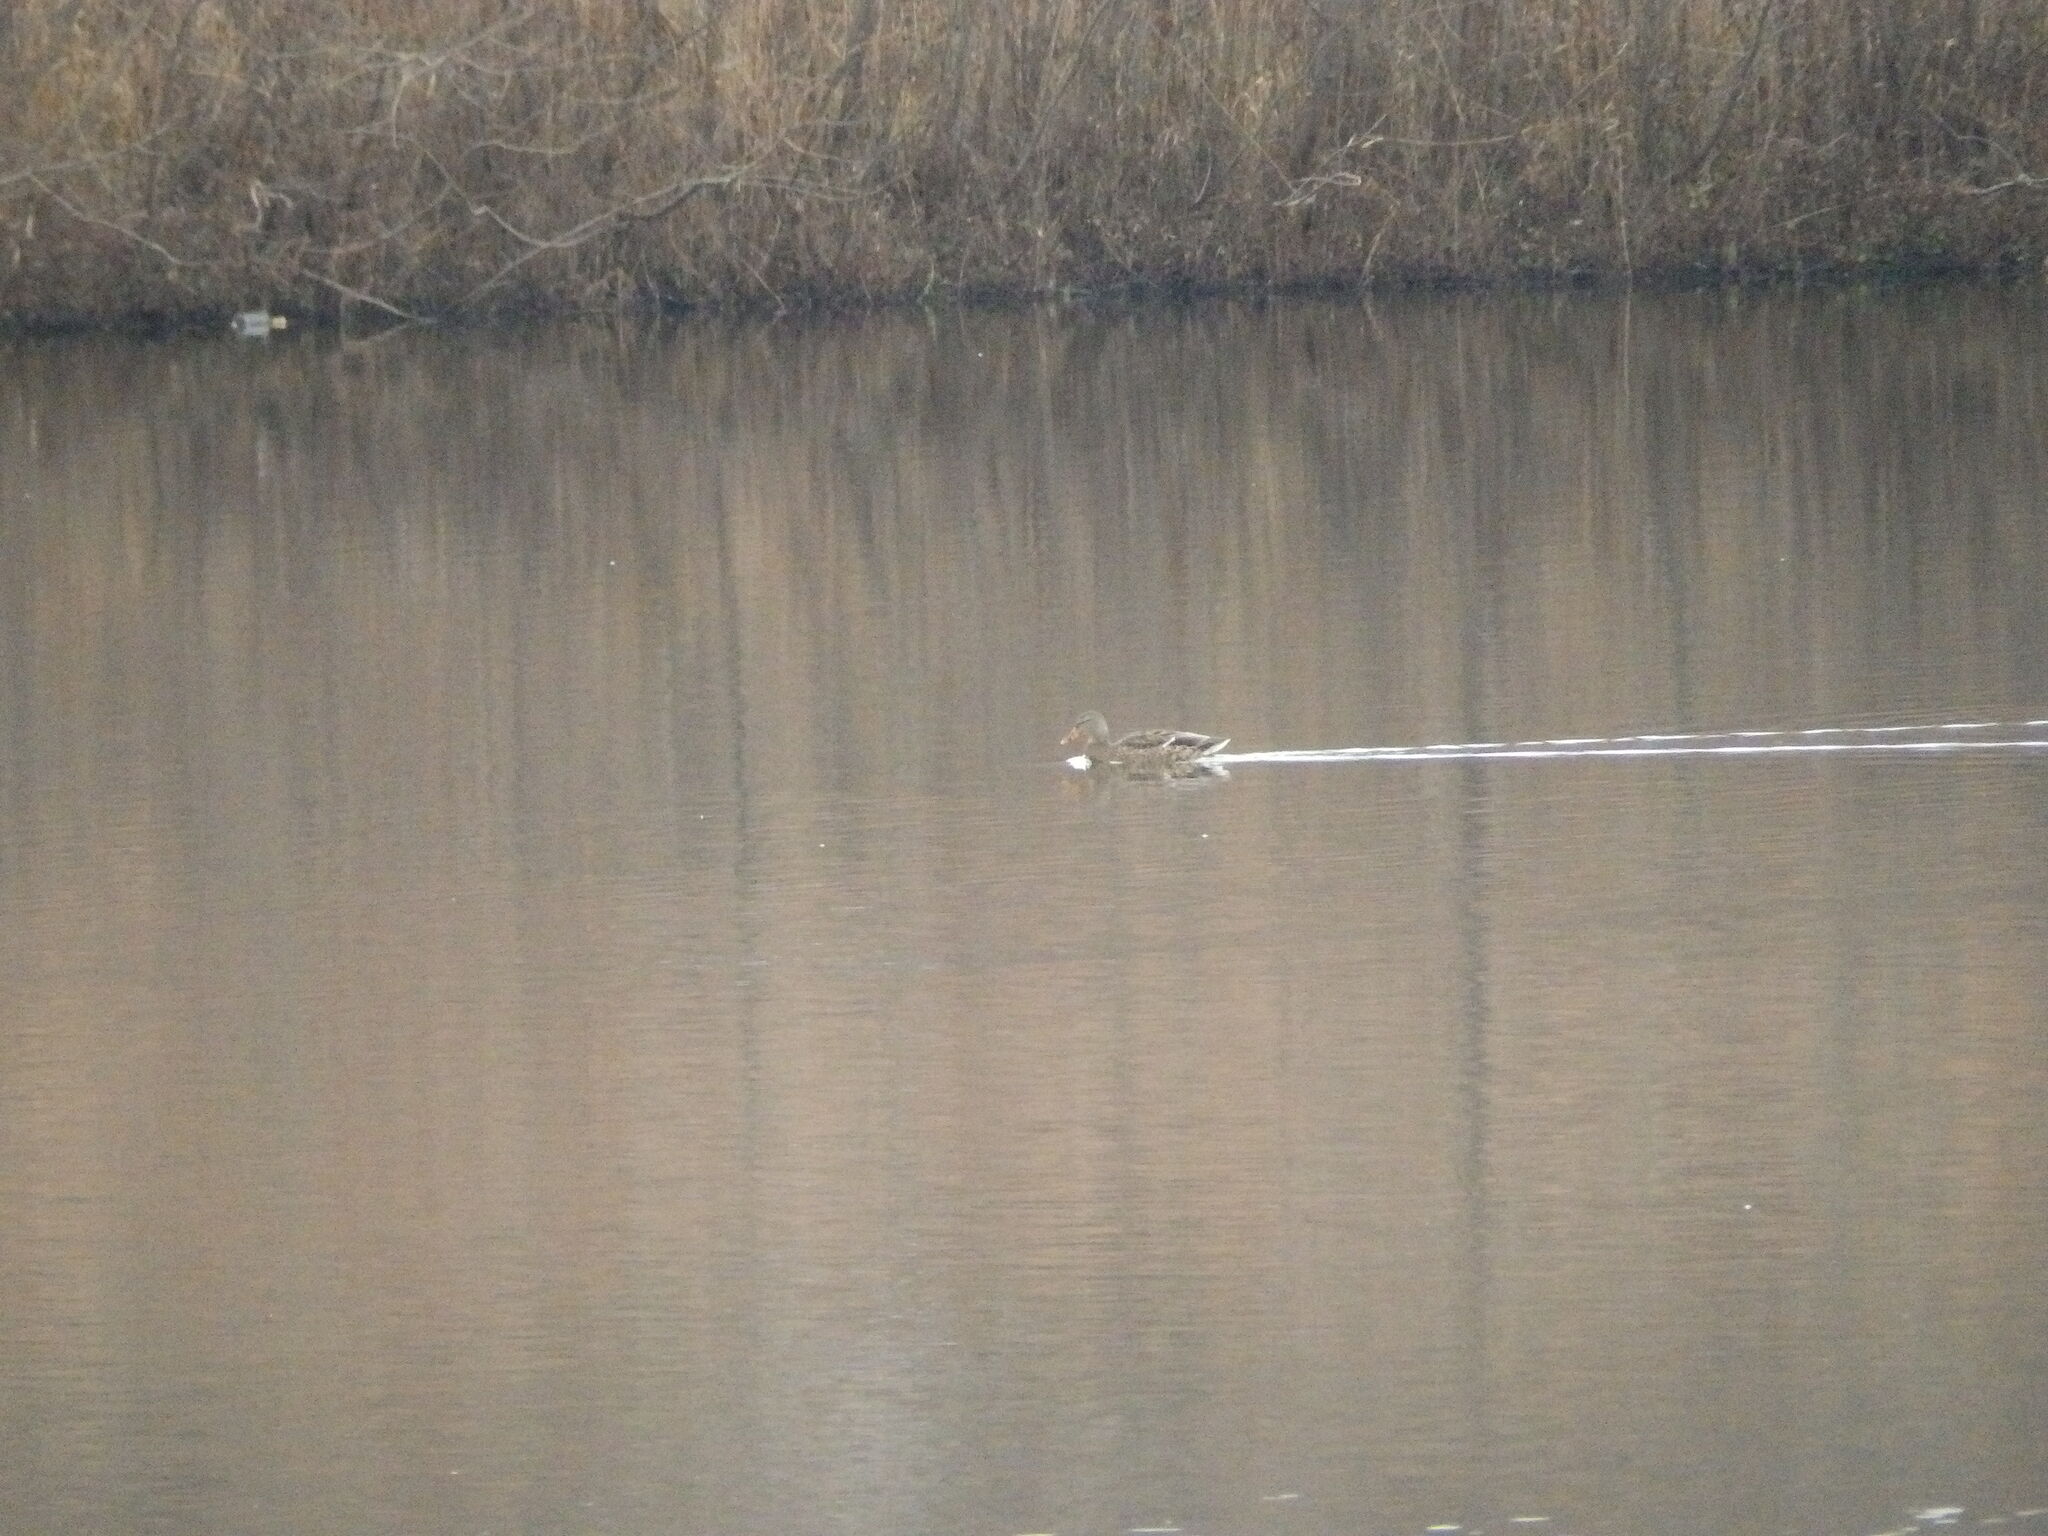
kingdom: Animalia
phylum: Chordata
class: Aves
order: Anseriformes
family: Anatidae
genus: Anas
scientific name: Anas platyrhynchos
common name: Mallard
